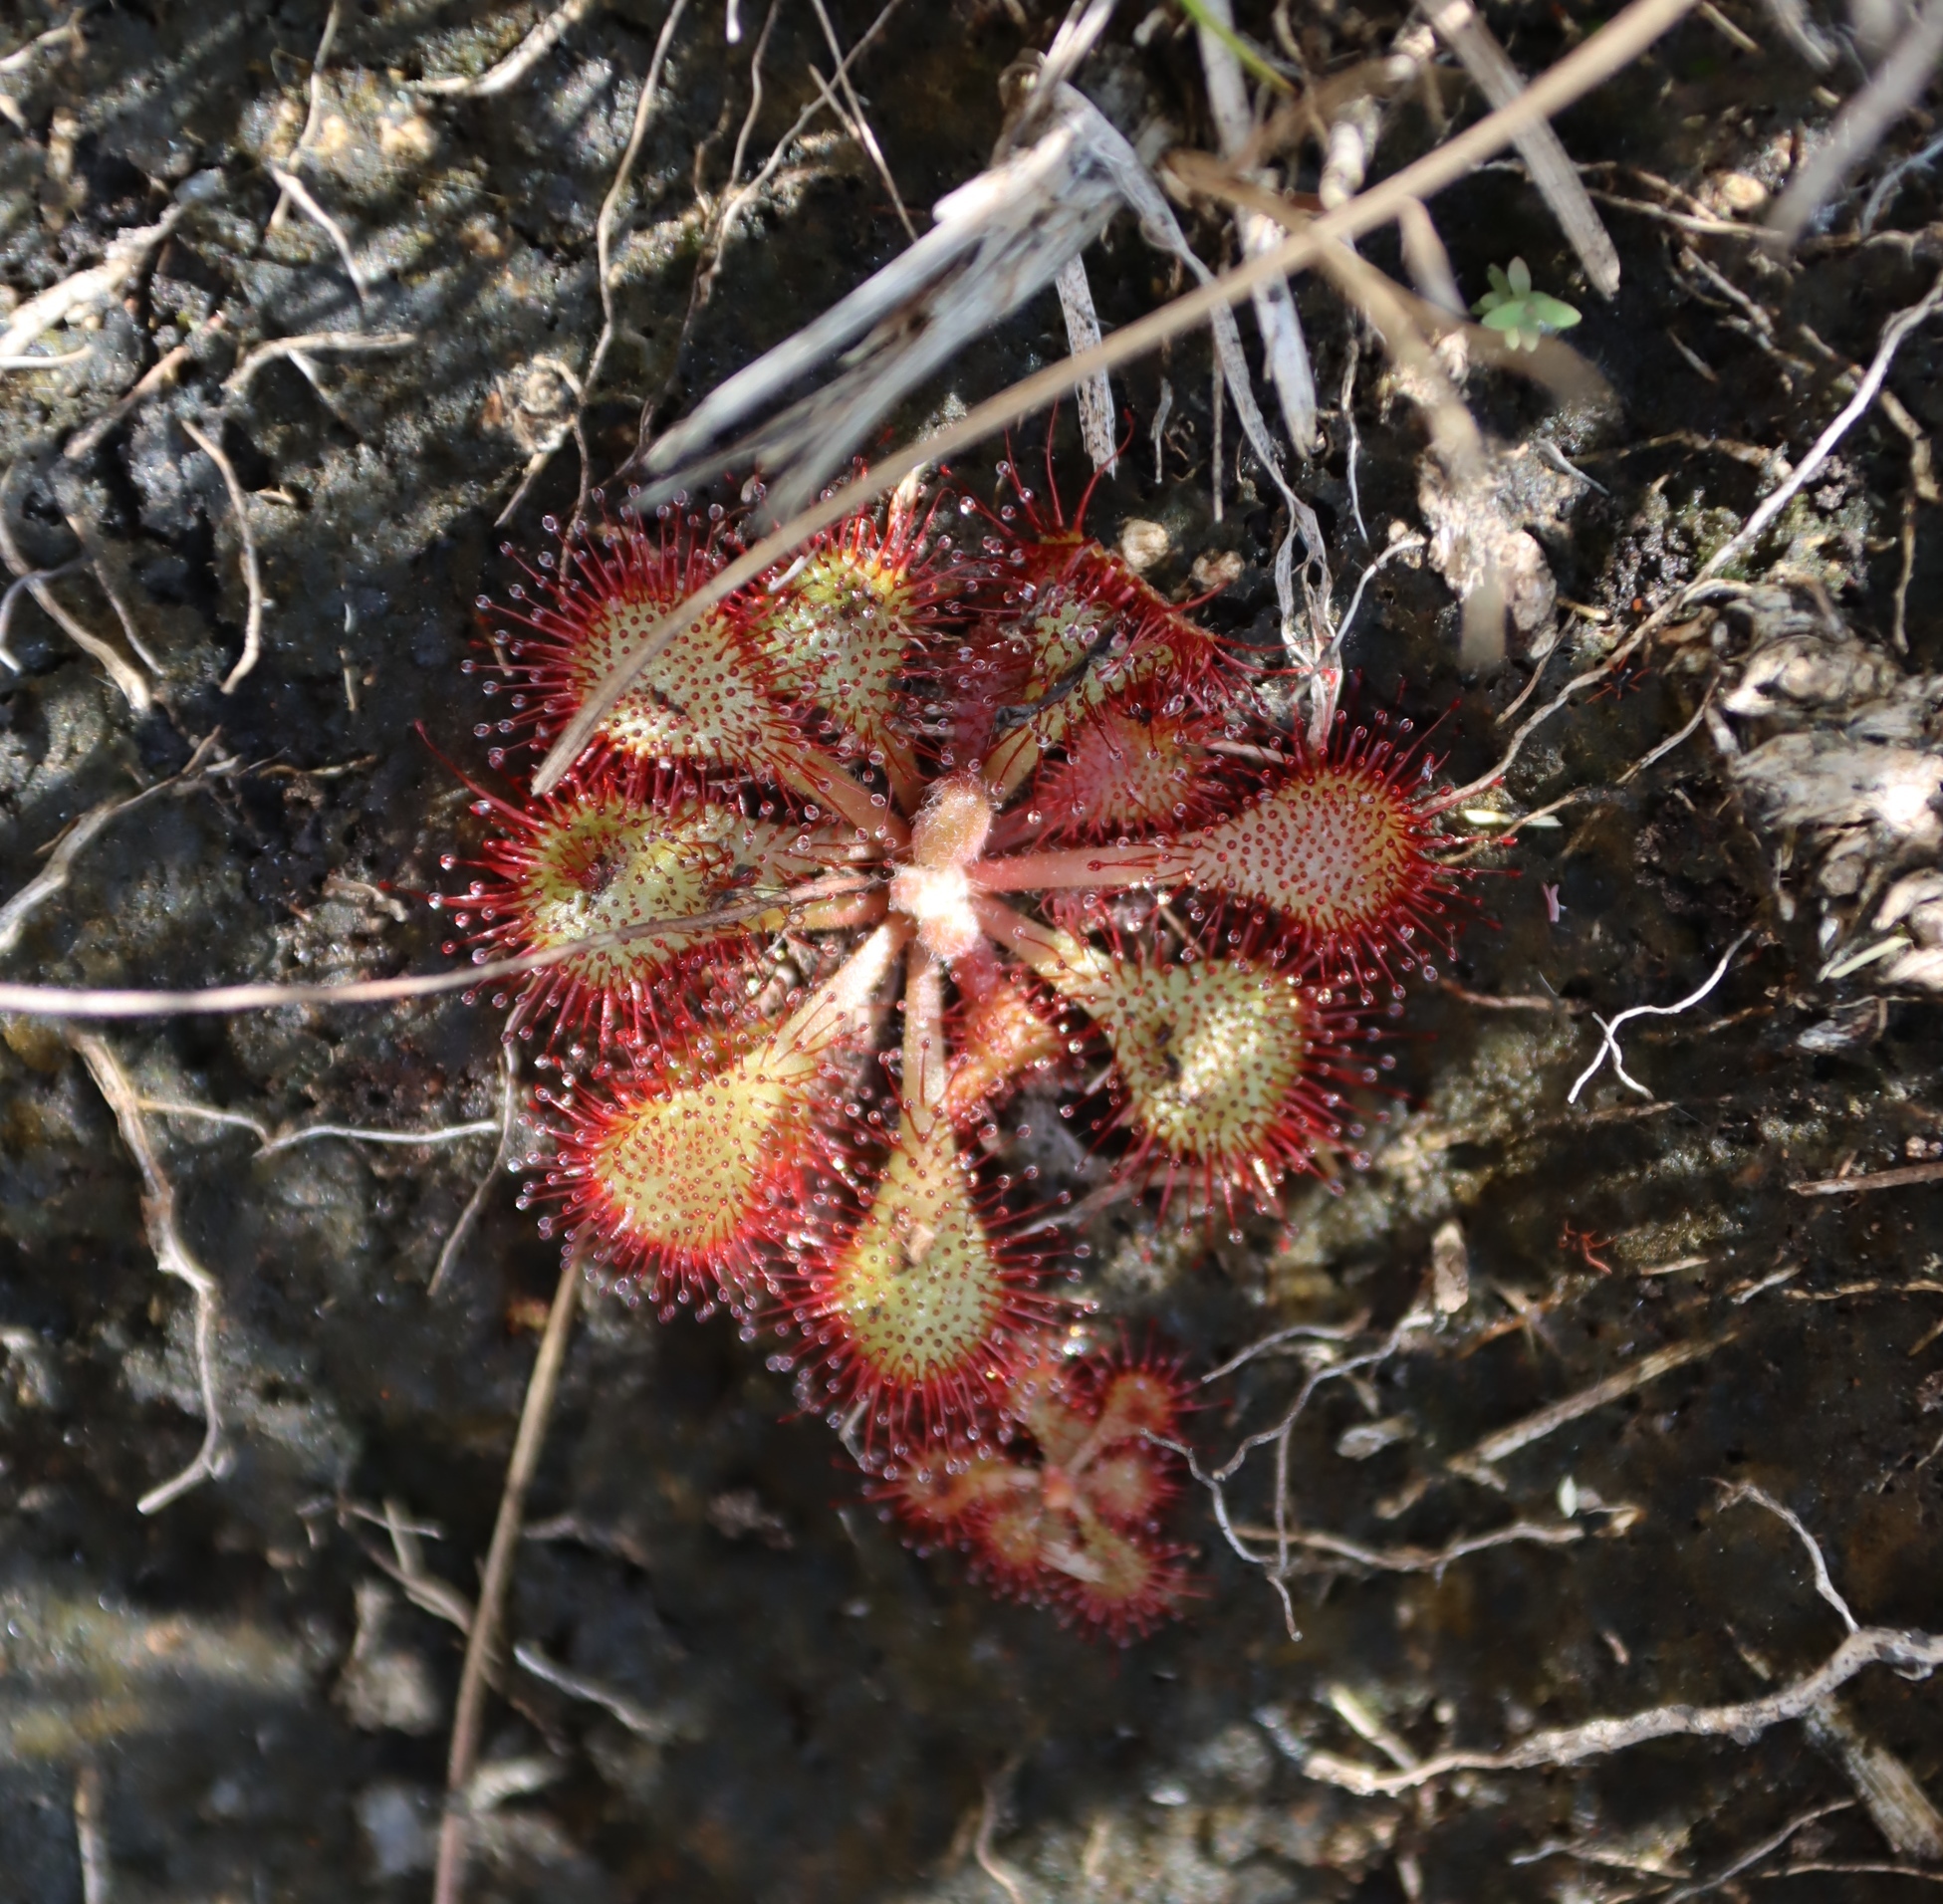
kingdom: Plantae
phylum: Tracheophyta
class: Magnoliopsida
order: Caryophyllales
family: Droseraceae
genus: Drosera
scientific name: Drosera dielsiana
